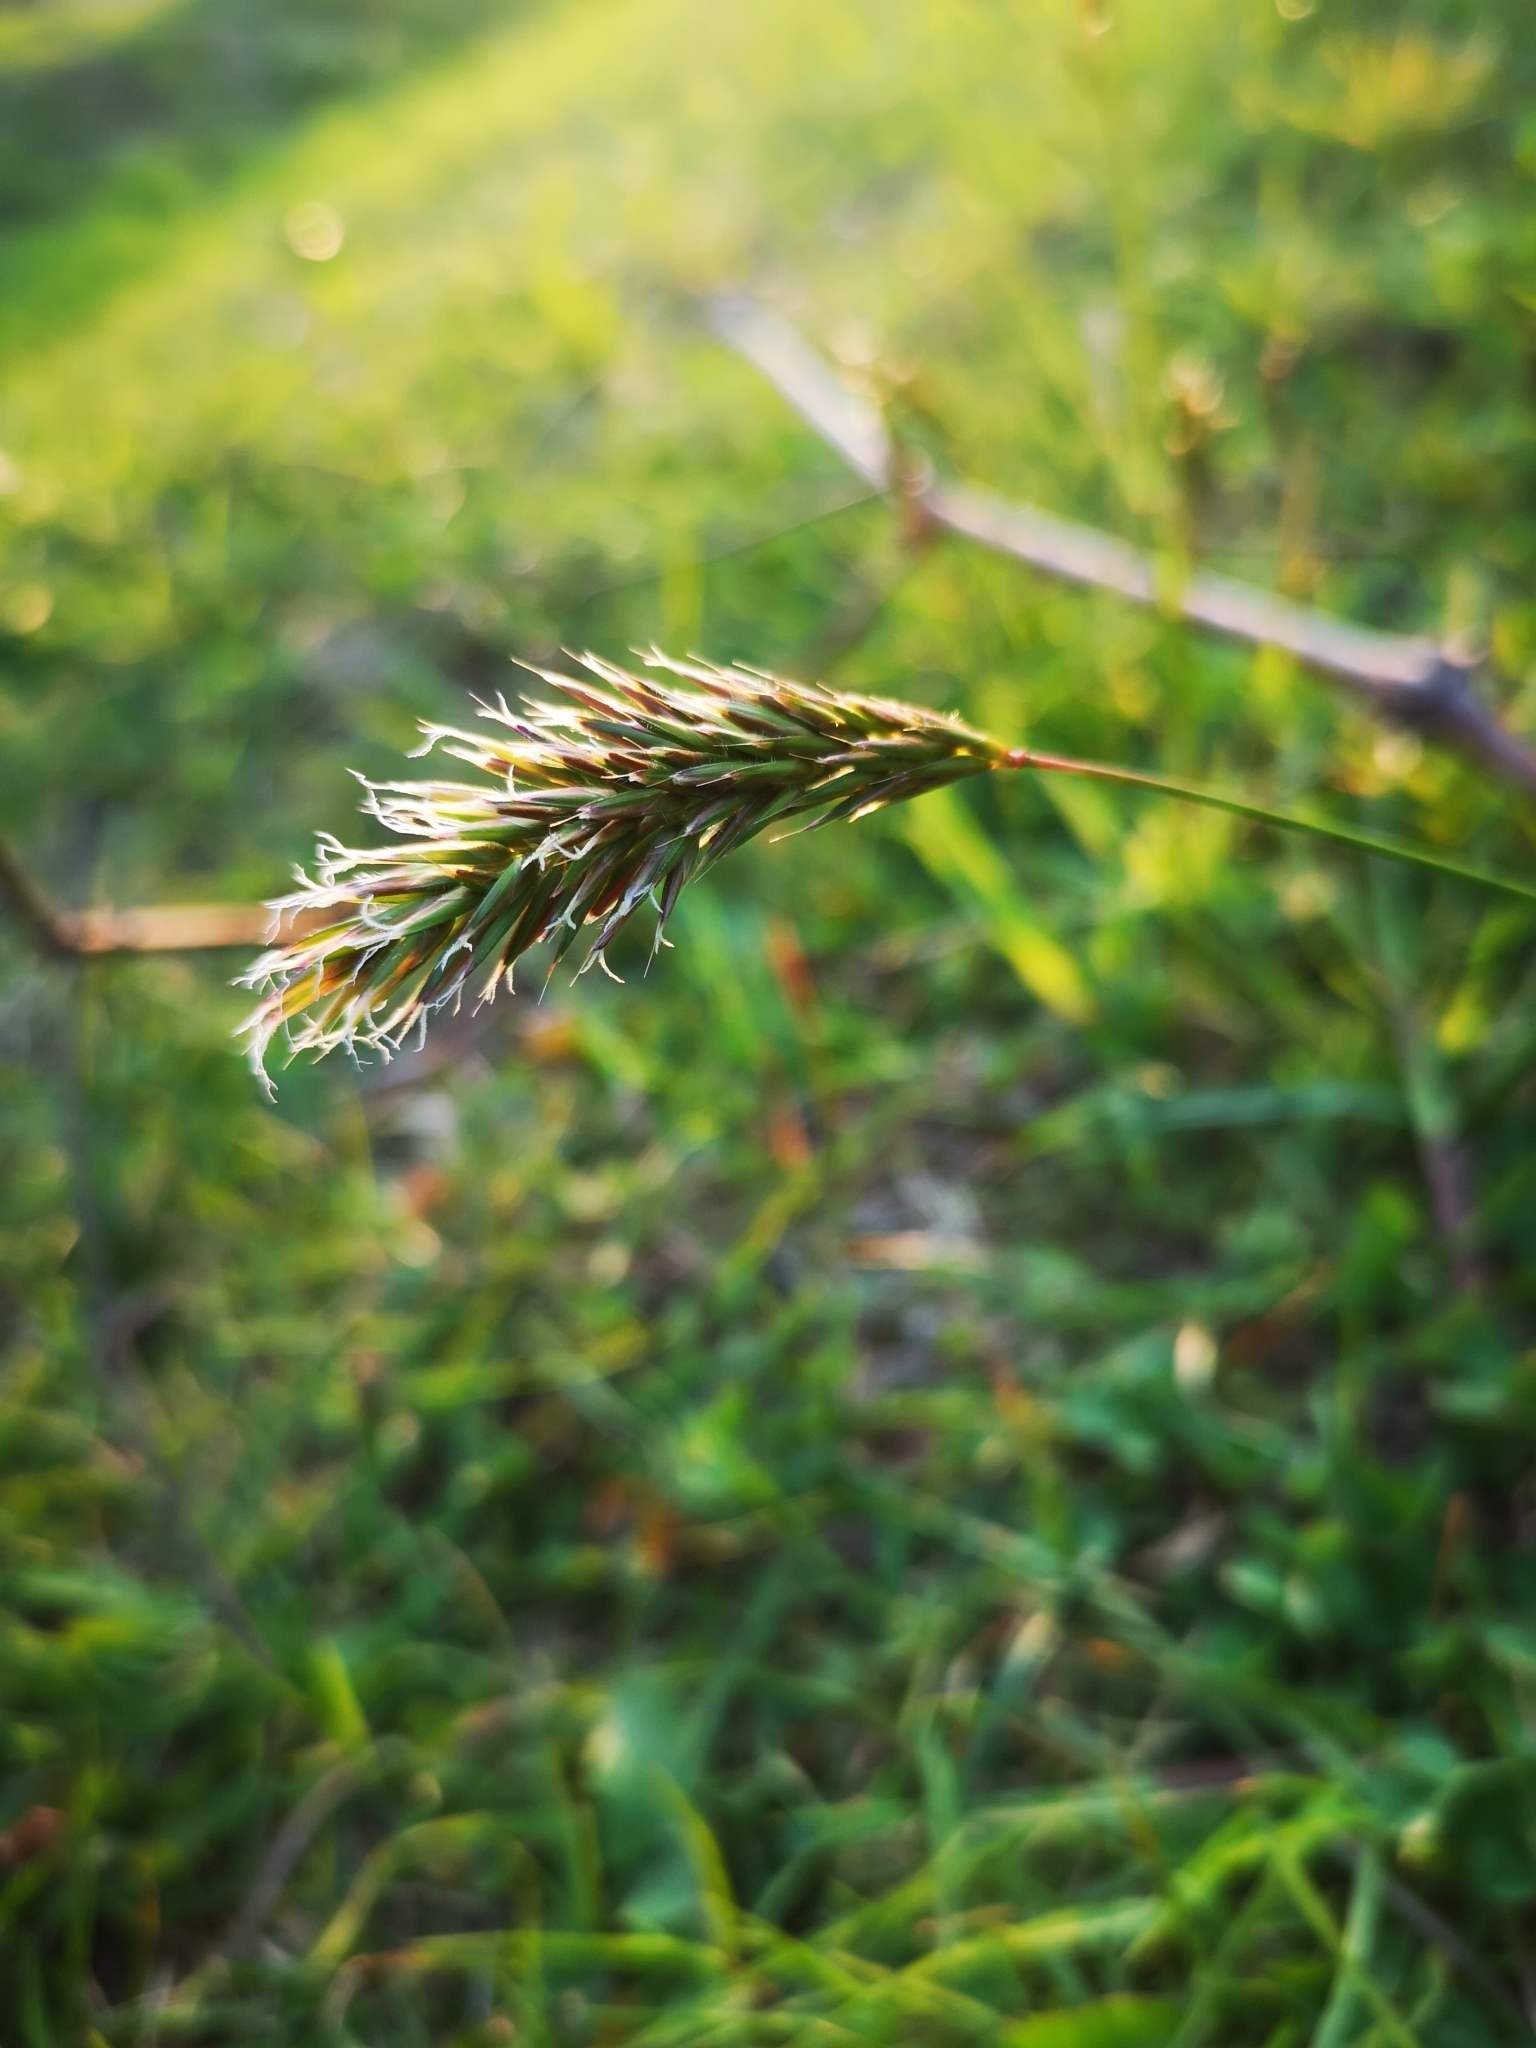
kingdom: Plantae
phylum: Tracheophyta
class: Liliopsida
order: Poales
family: Poaceae
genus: Anthoxanthum
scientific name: Anthoxanthum odoratum
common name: Sweet vernalgrass
